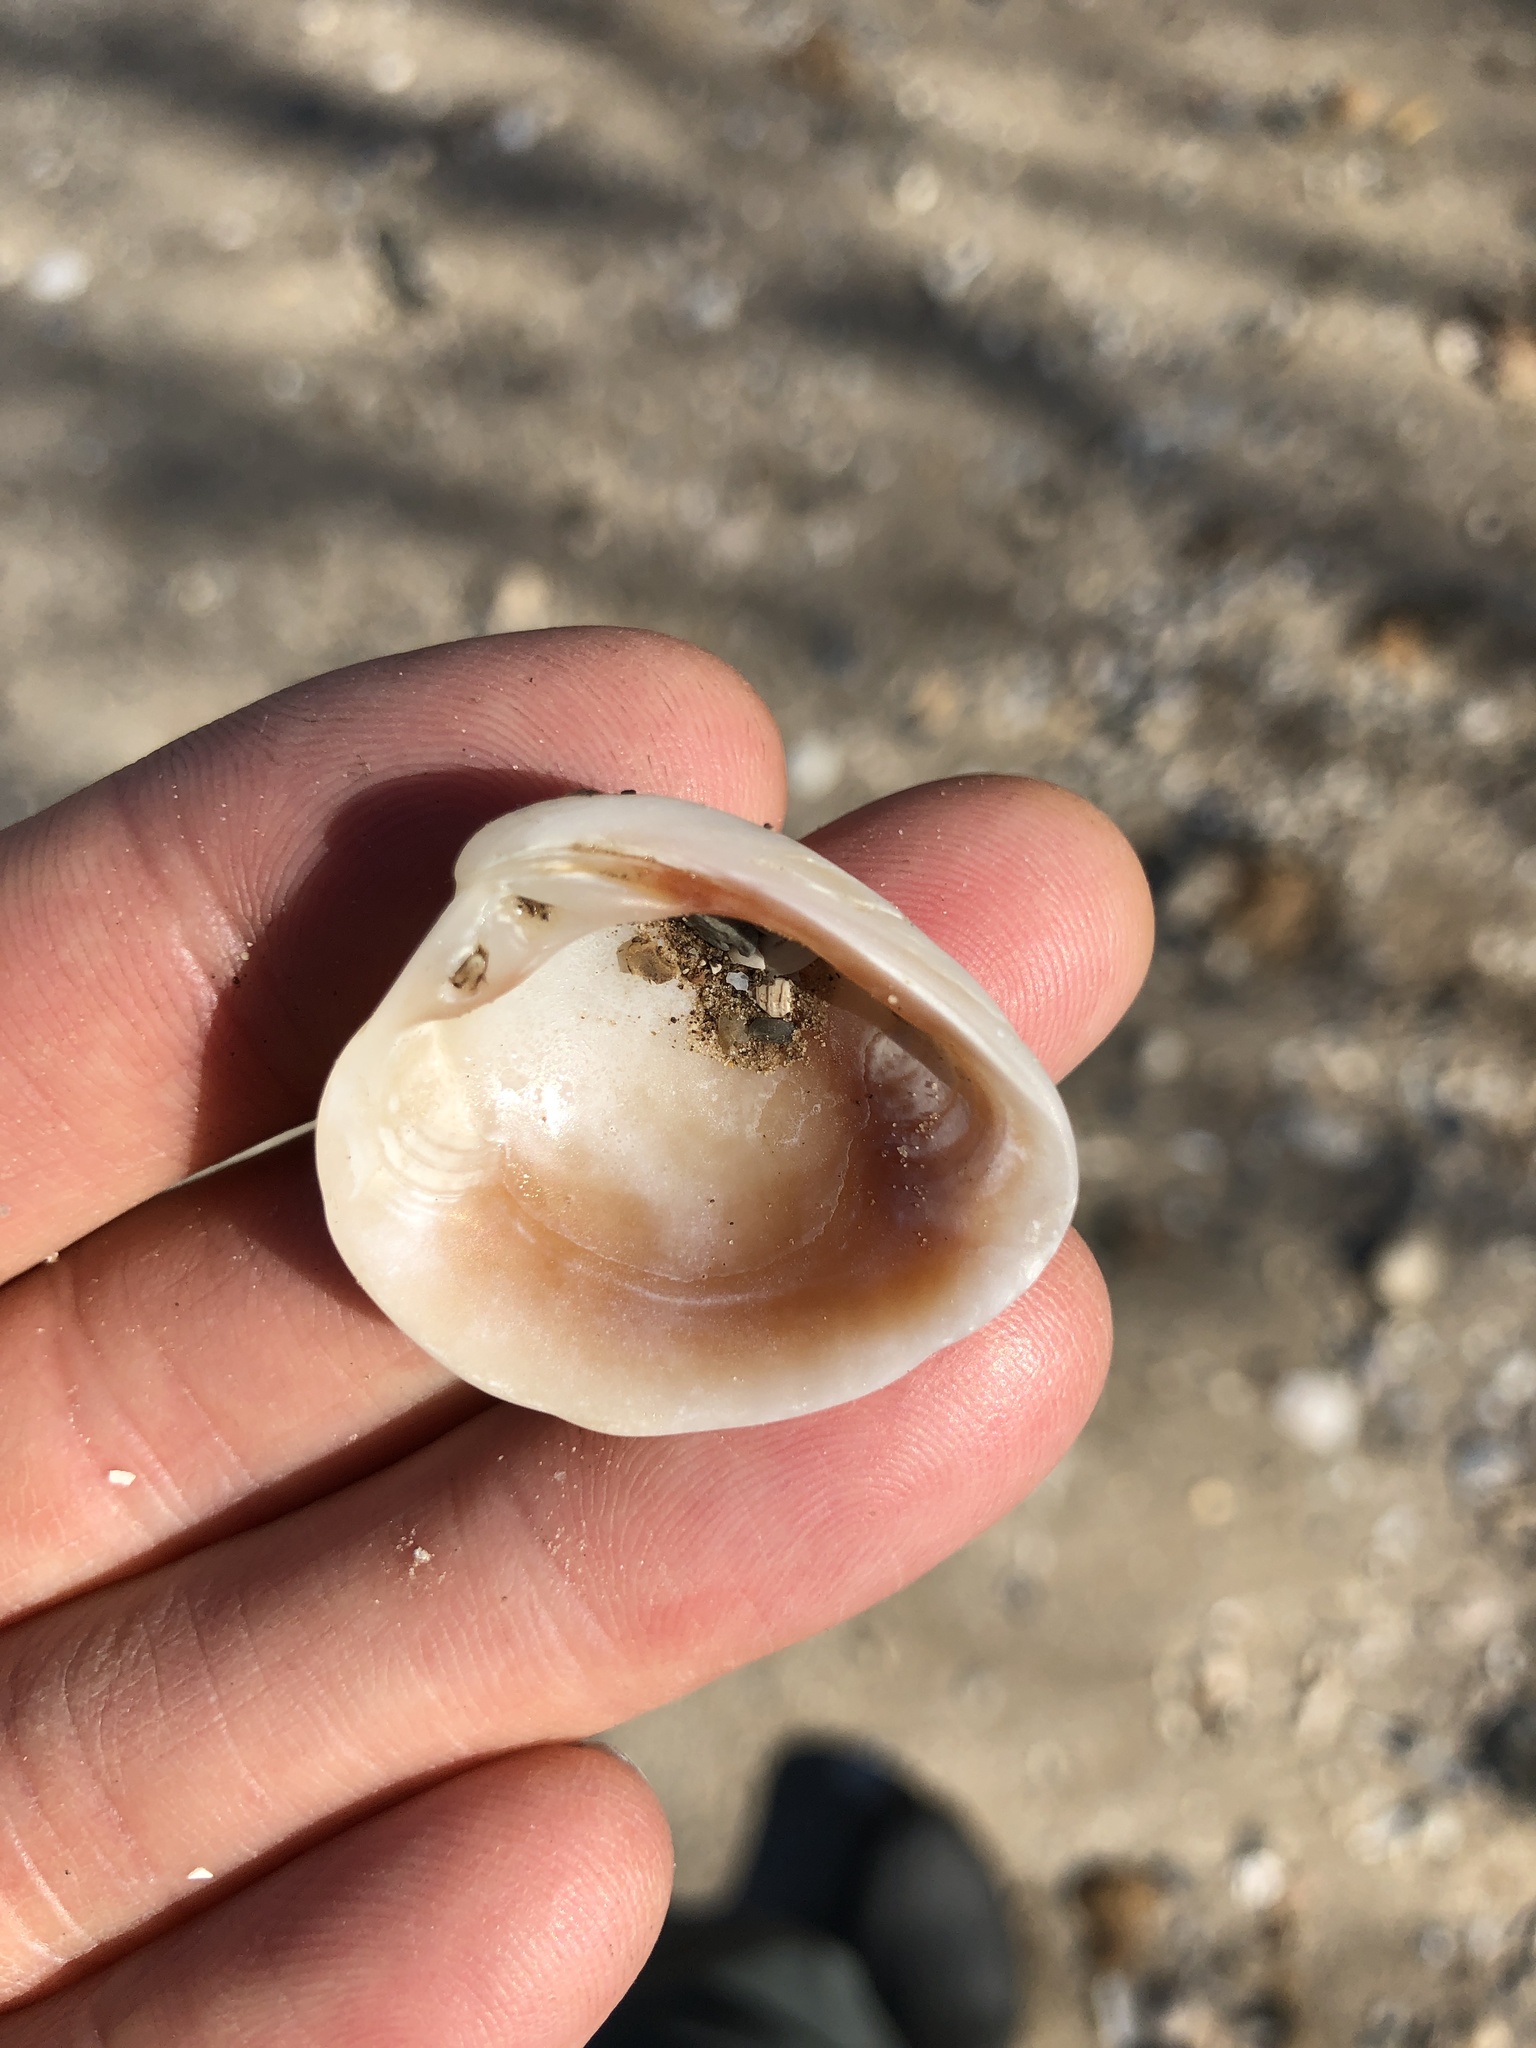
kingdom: Animalia
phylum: Mollusca
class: Bivalvia
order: Venerida
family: Veneridae
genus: Chione
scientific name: Chione elevata
